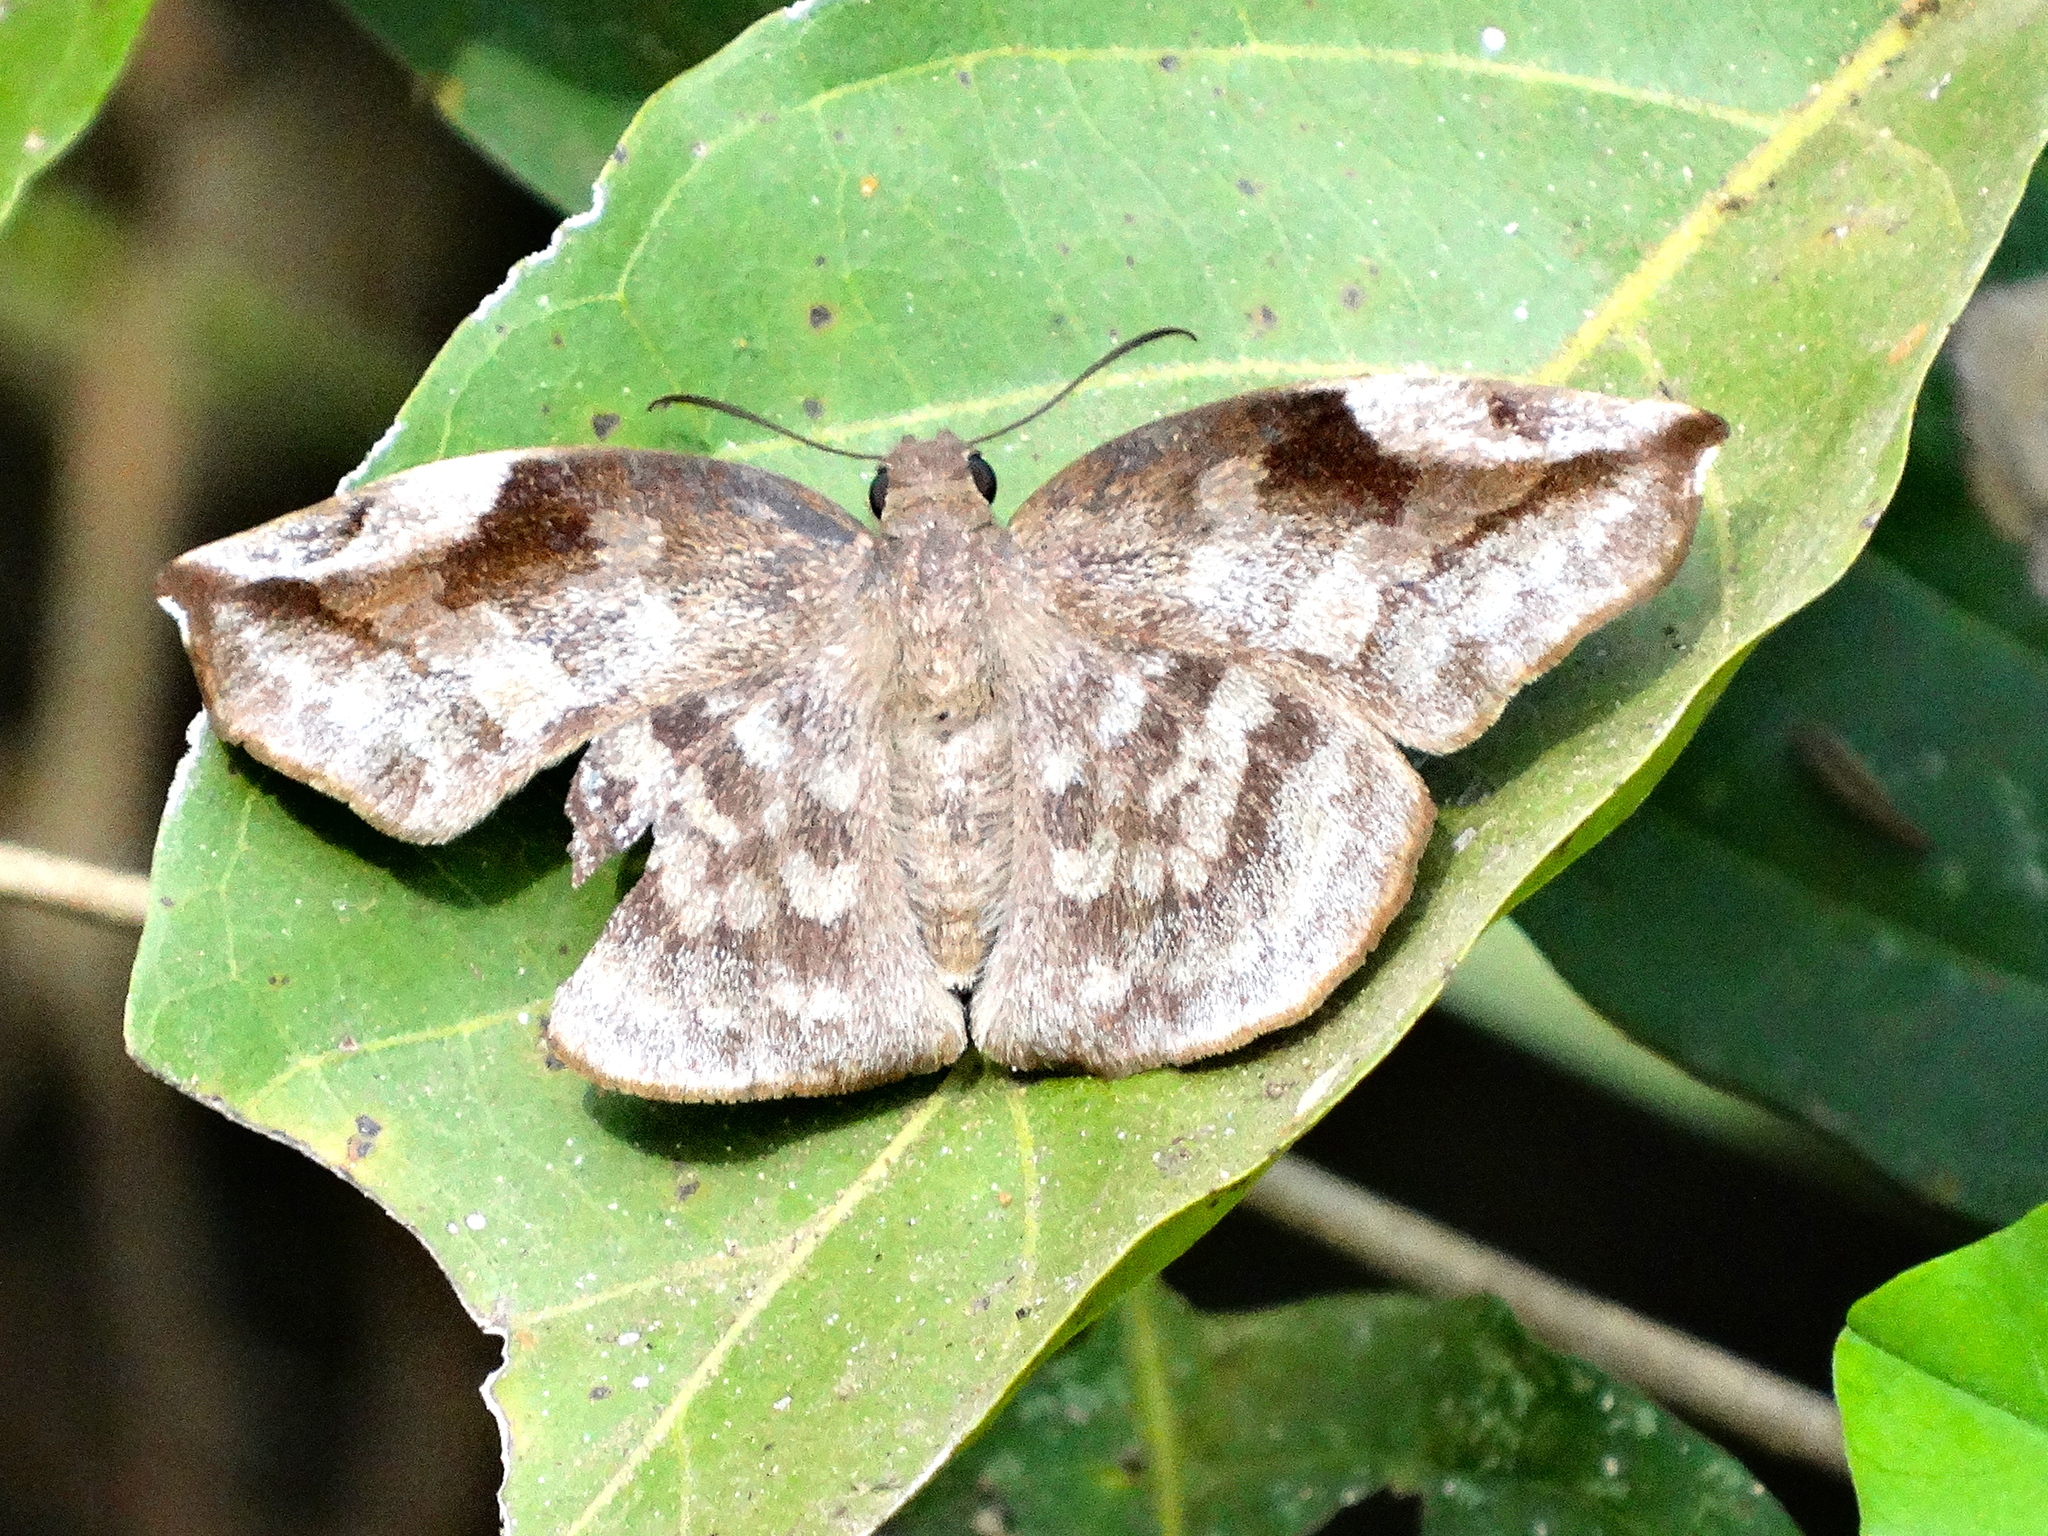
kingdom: Animalia
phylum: Arthropoda
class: Insecta
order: Lepidoptera
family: Hesperiidae
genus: Achlyodes
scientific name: Achlyodes thraso
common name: Sickle-winged skipper
